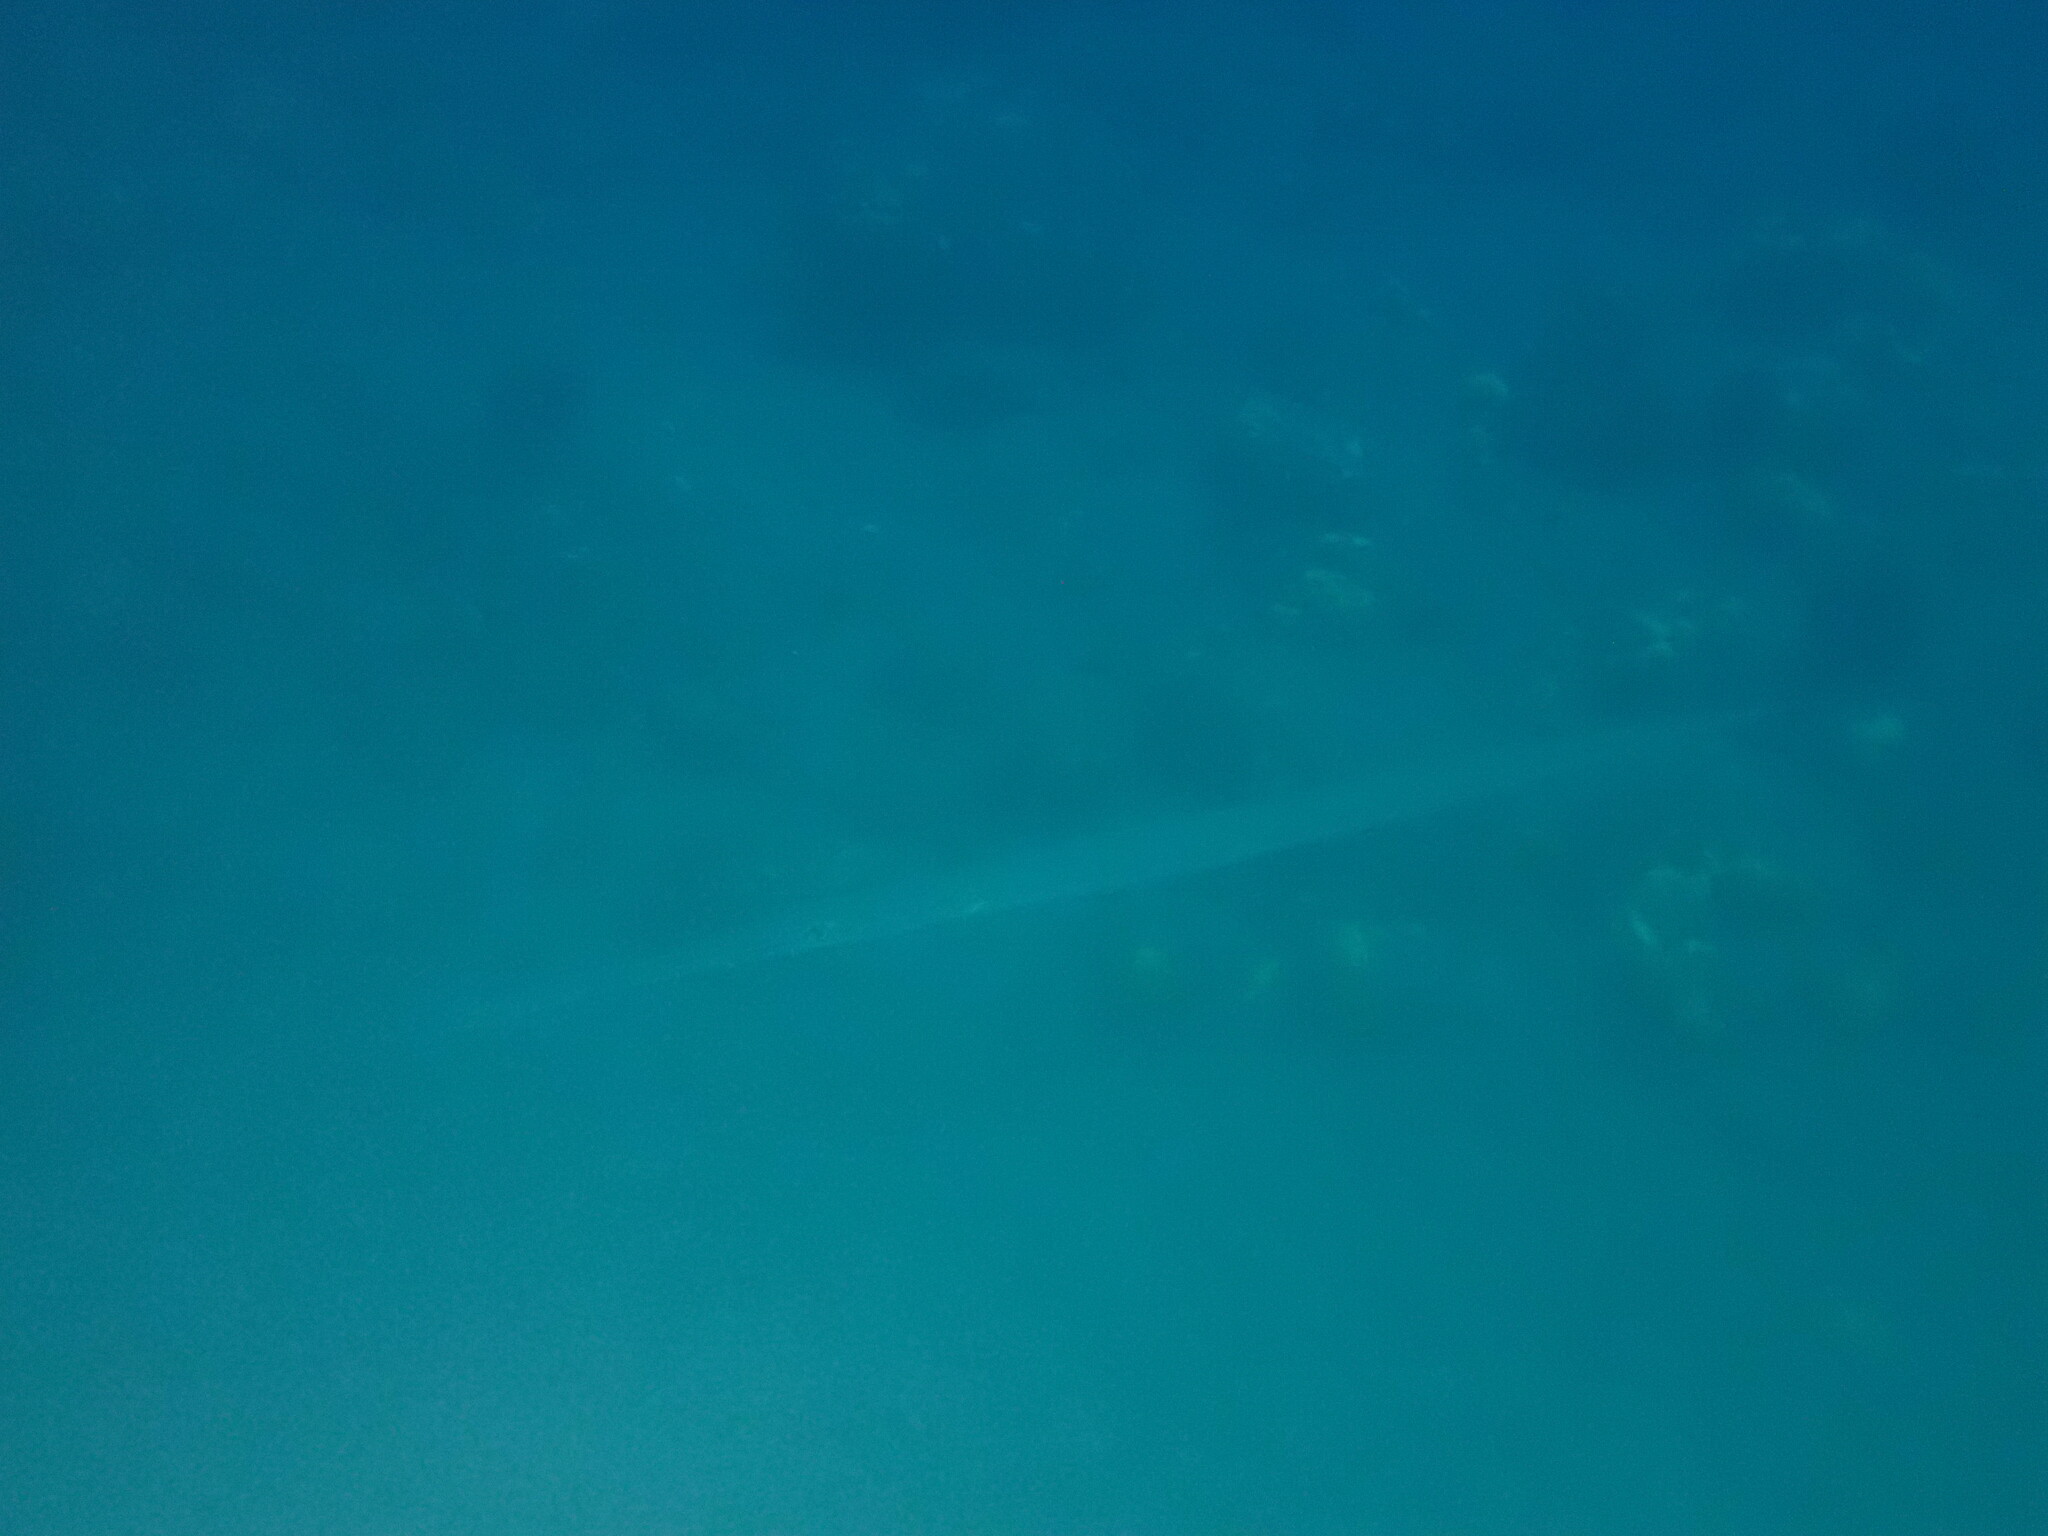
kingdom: Animalia
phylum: Chordata
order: Syngnathiformes
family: Fistulariidae
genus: Fistularia
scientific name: Fistularia commersonii
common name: Bluespotted cornetfish
